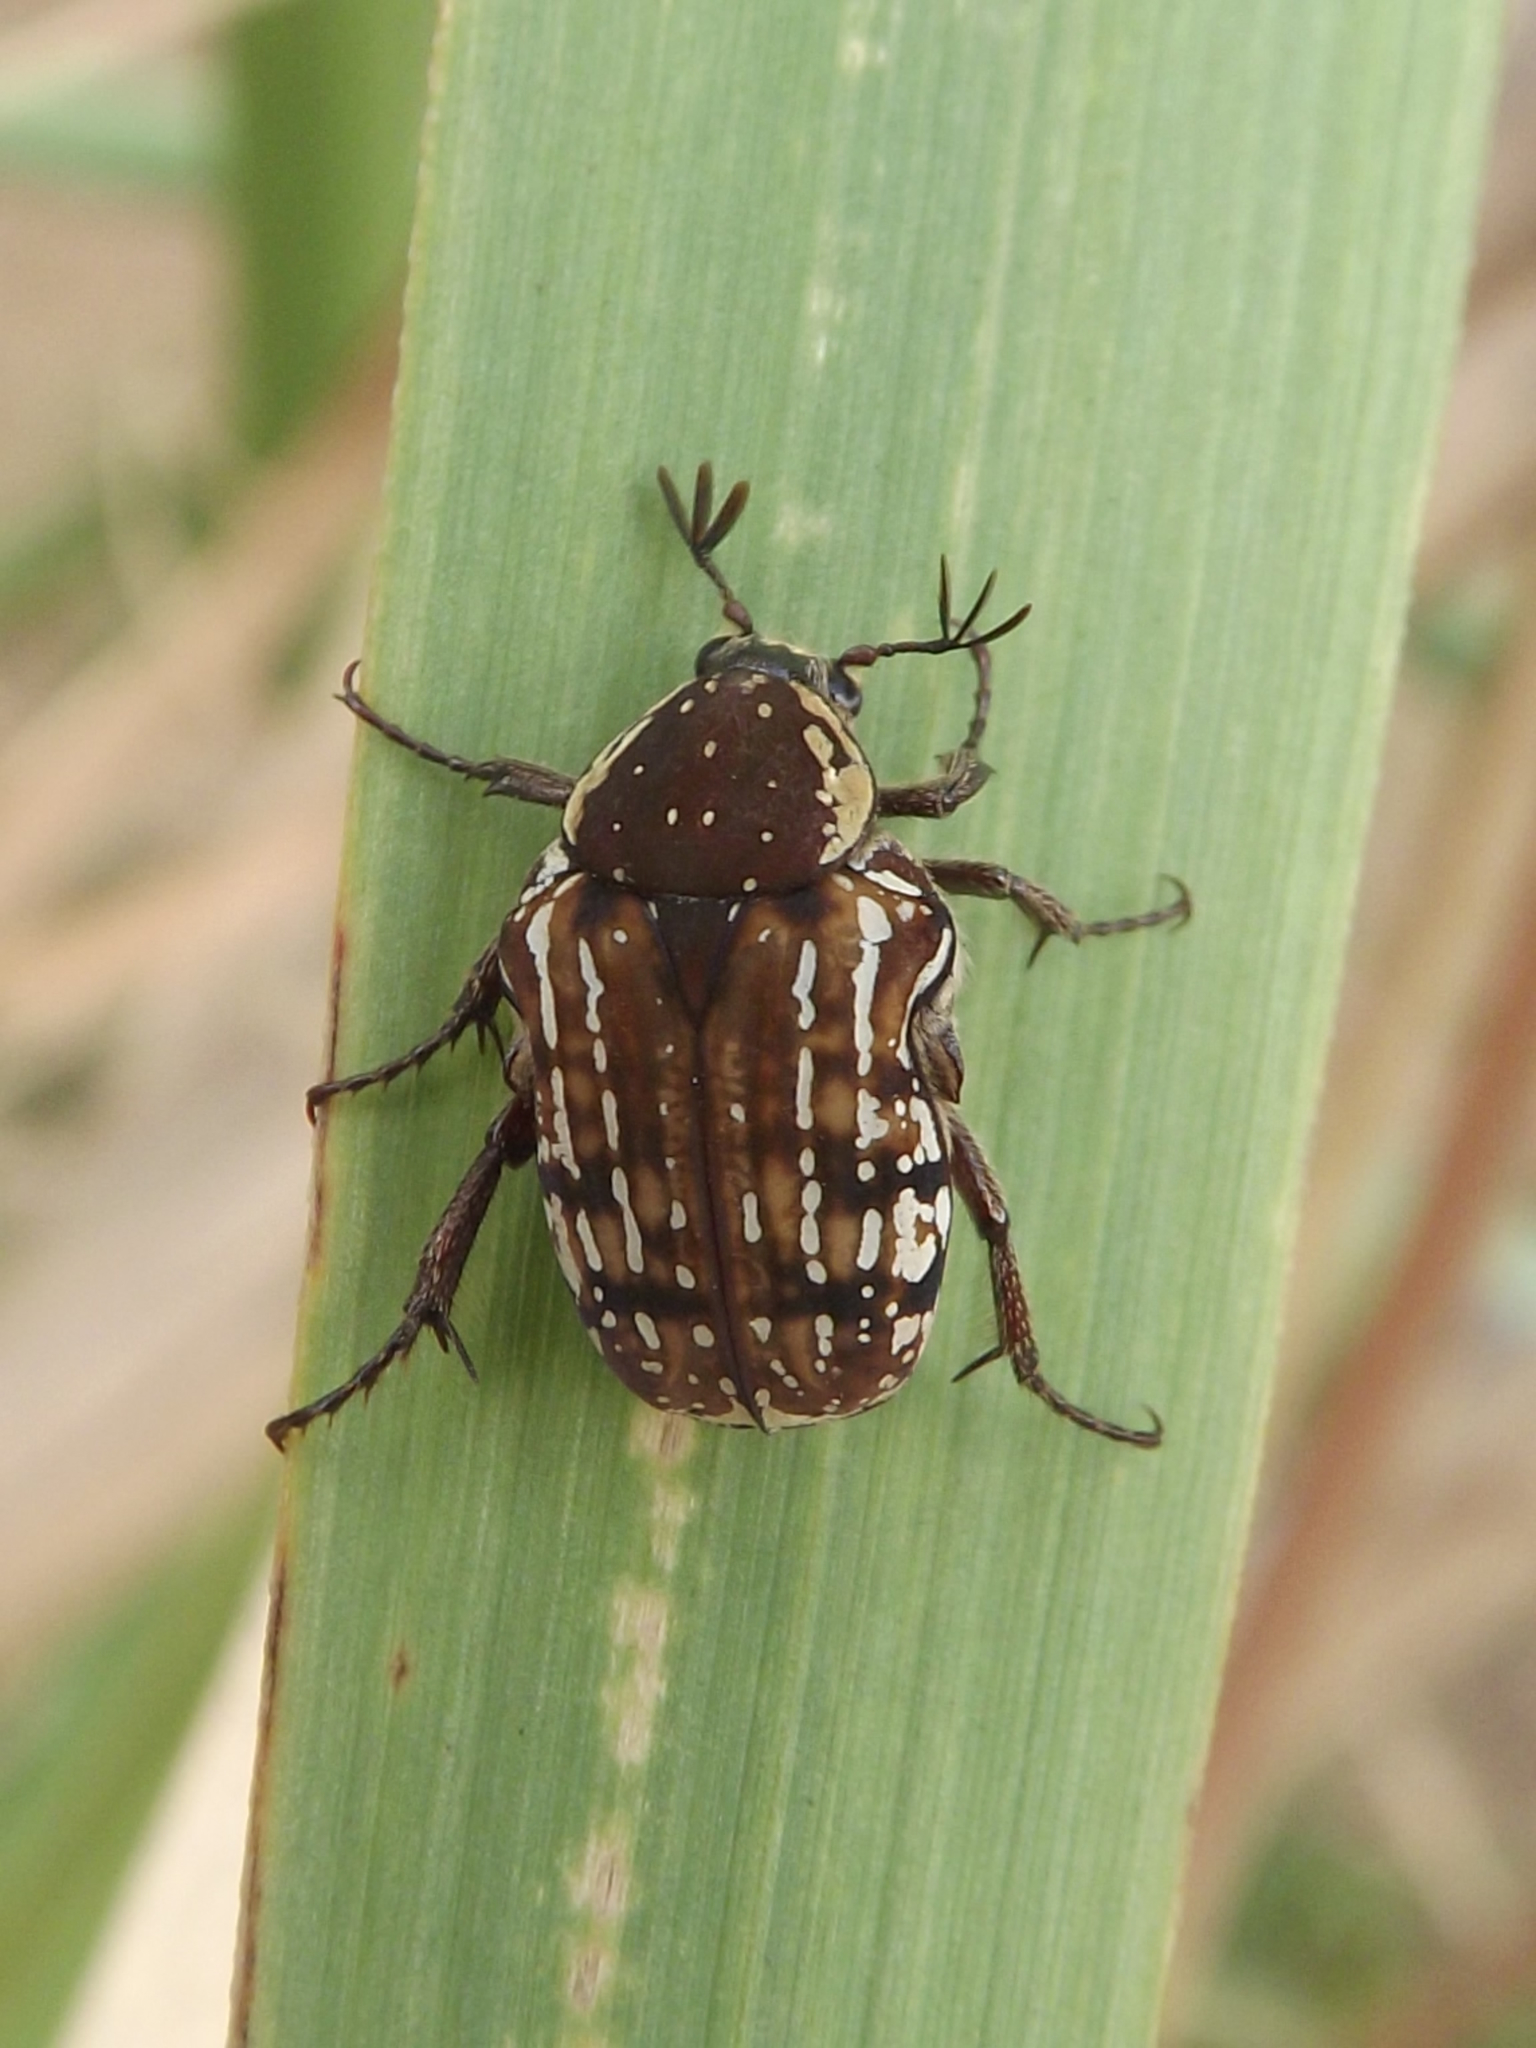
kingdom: Animalia
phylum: Arthropoda
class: Insecta
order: Coleoptera
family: Scarabaeidae
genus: Elaphinis
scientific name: Elaphinis delagoensis
